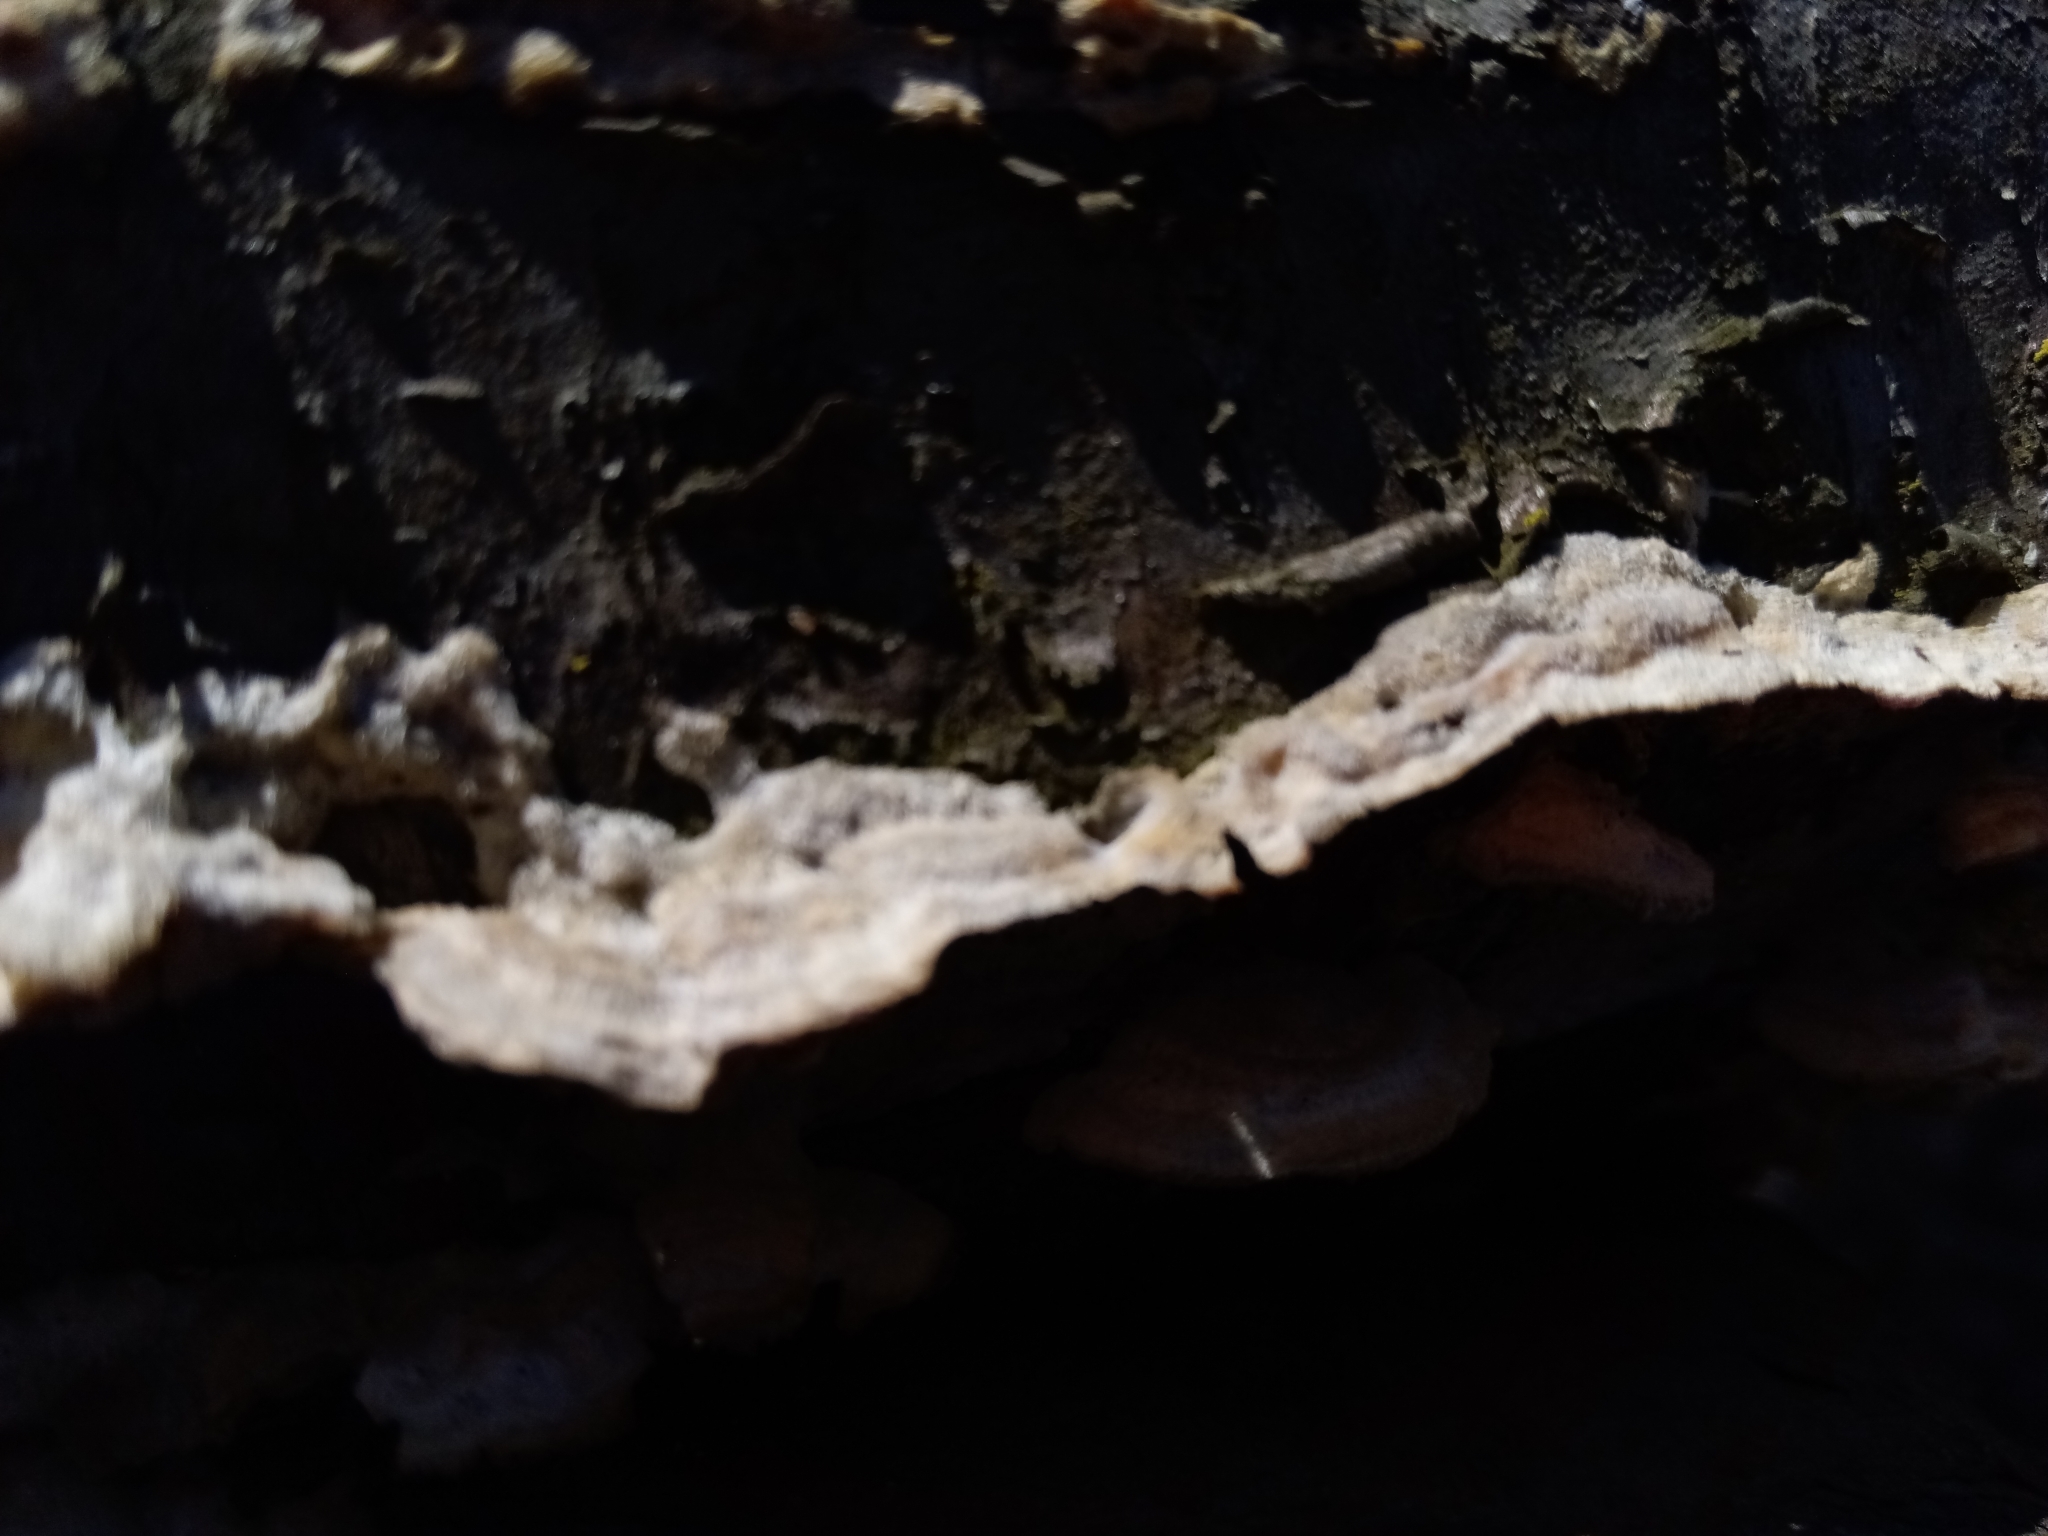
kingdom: Fungi
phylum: Basidiomycota
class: Agaricomycetes
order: Polyporales
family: Irpicaceae
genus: Irpex
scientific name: Irpex lacteus
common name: Milk-white toothed polypore
